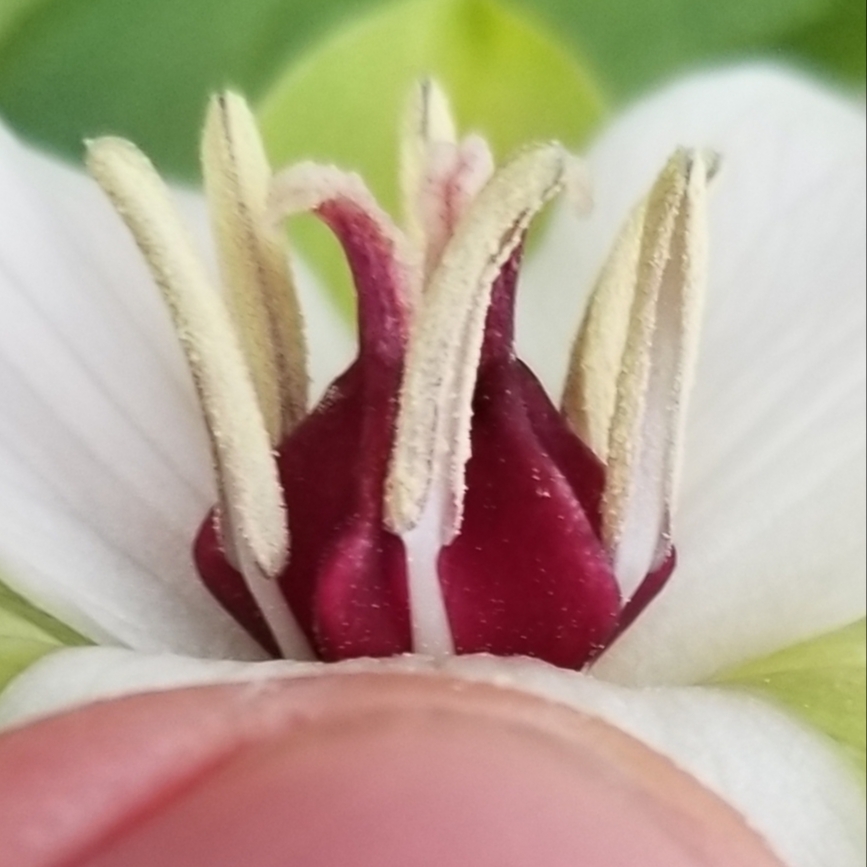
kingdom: Plantae
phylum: Tracheophyta
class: Liliopsida
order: Liliales
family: Melanthiaceae
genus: Trillium
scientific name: Trillium erectum
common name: Purple trillium
